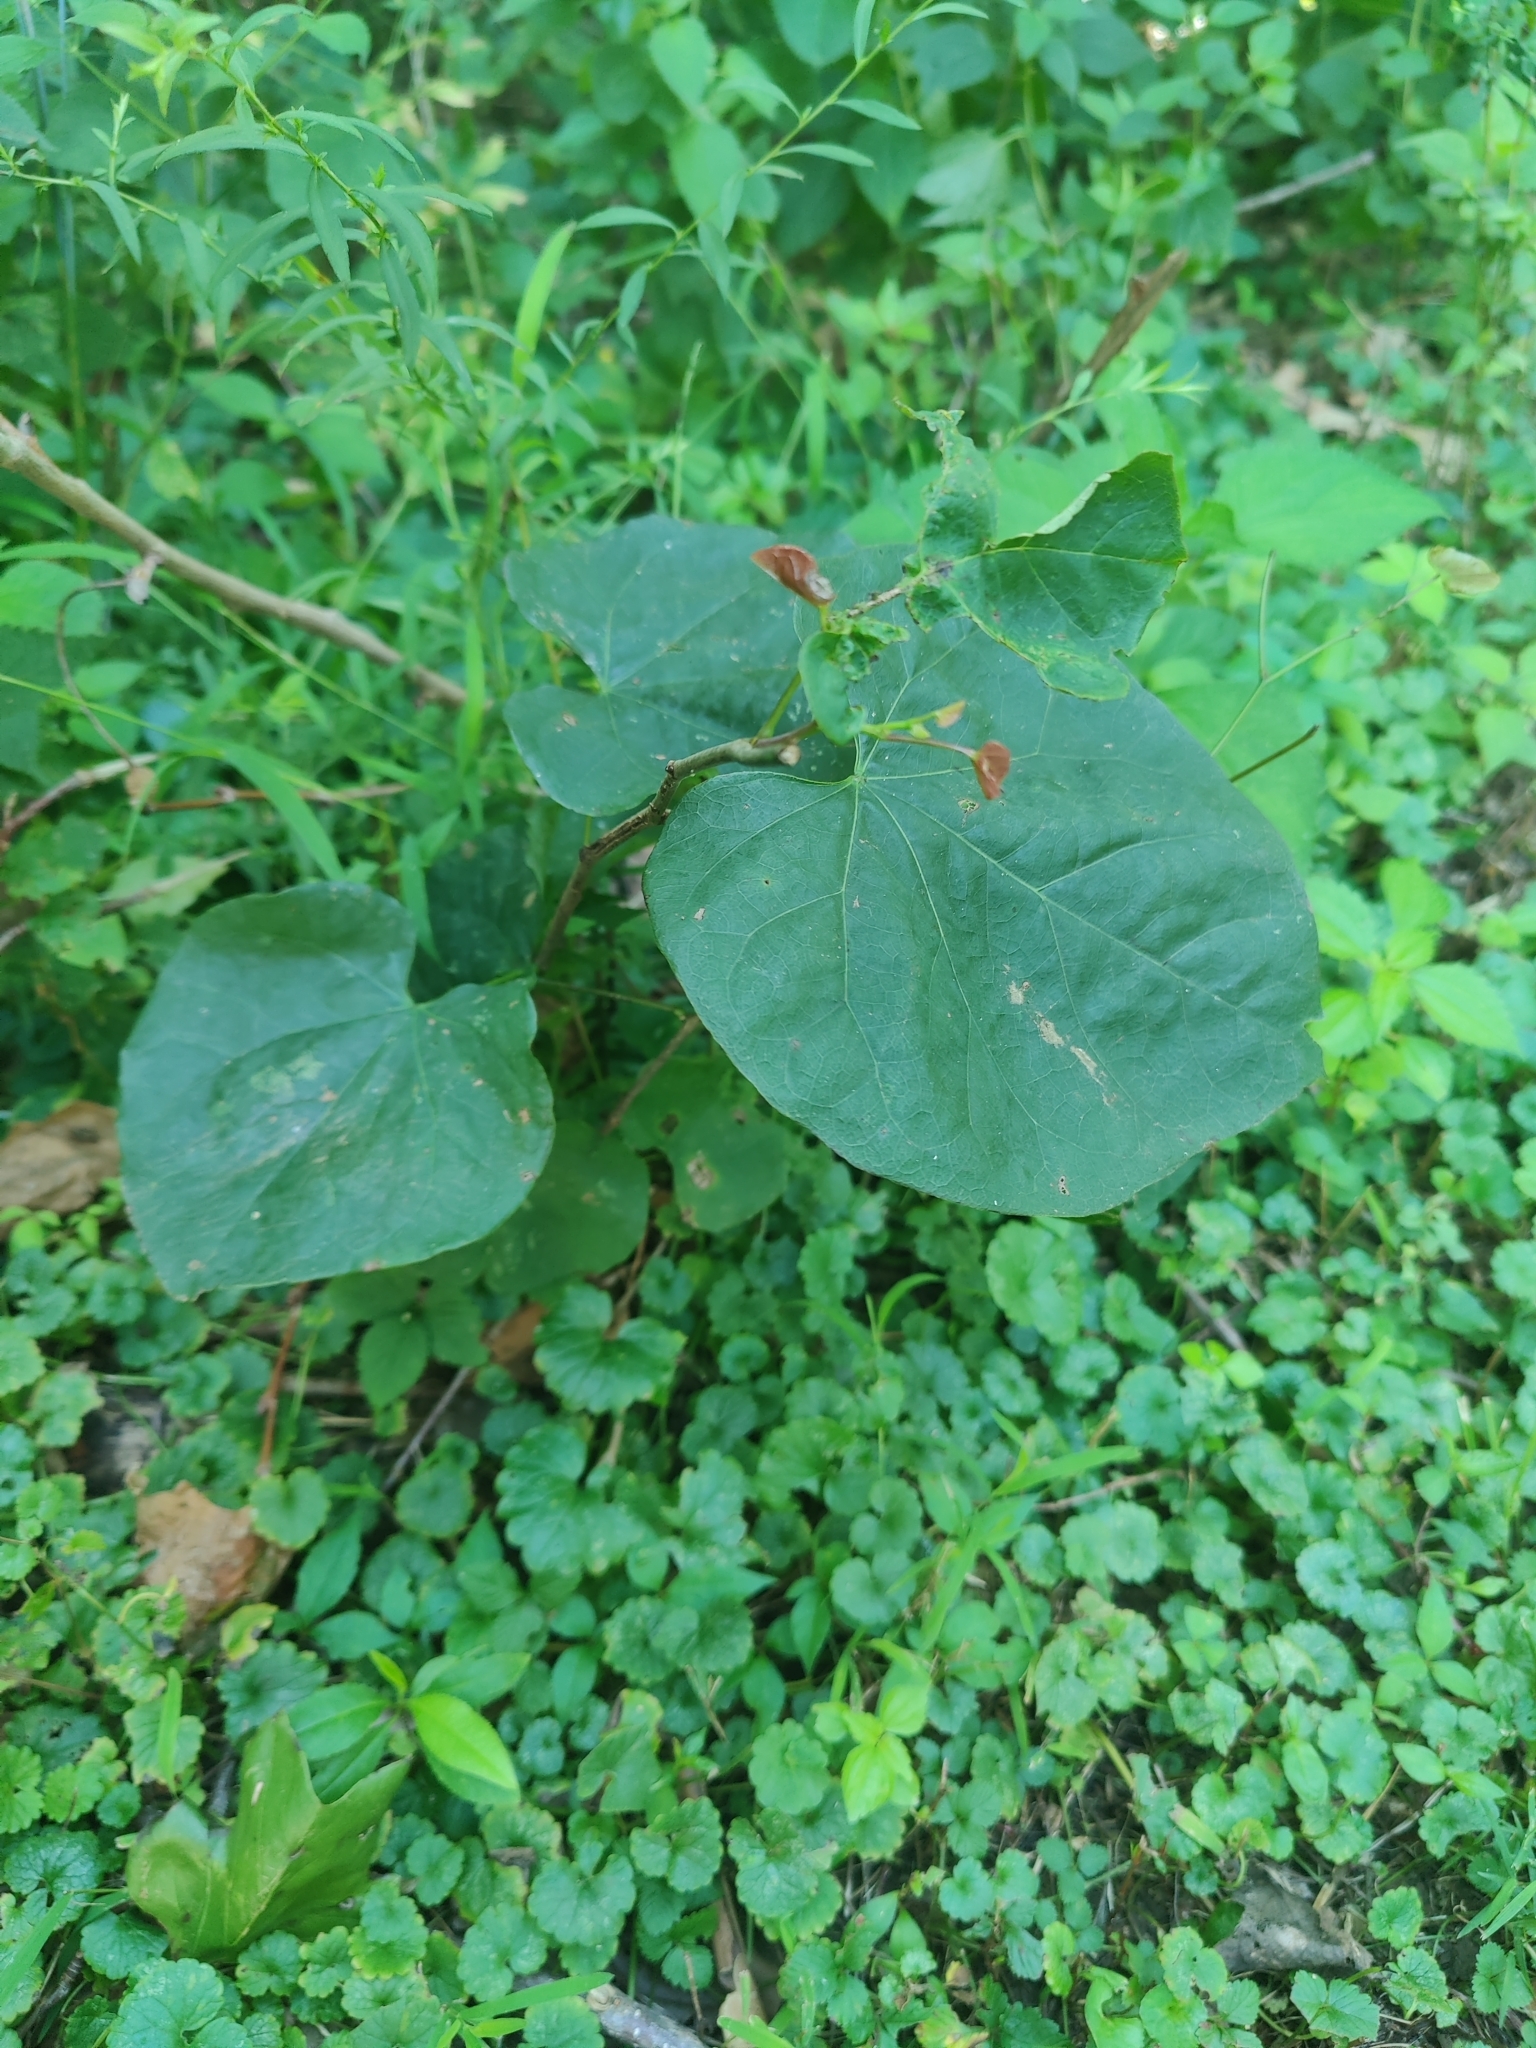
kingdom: Plantae
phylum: Tracheophyta
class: Magnoliopsida
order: Fabales
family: Fabaceae
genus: Cercis
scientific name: Cercis canadensis
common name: Eastern redbud
